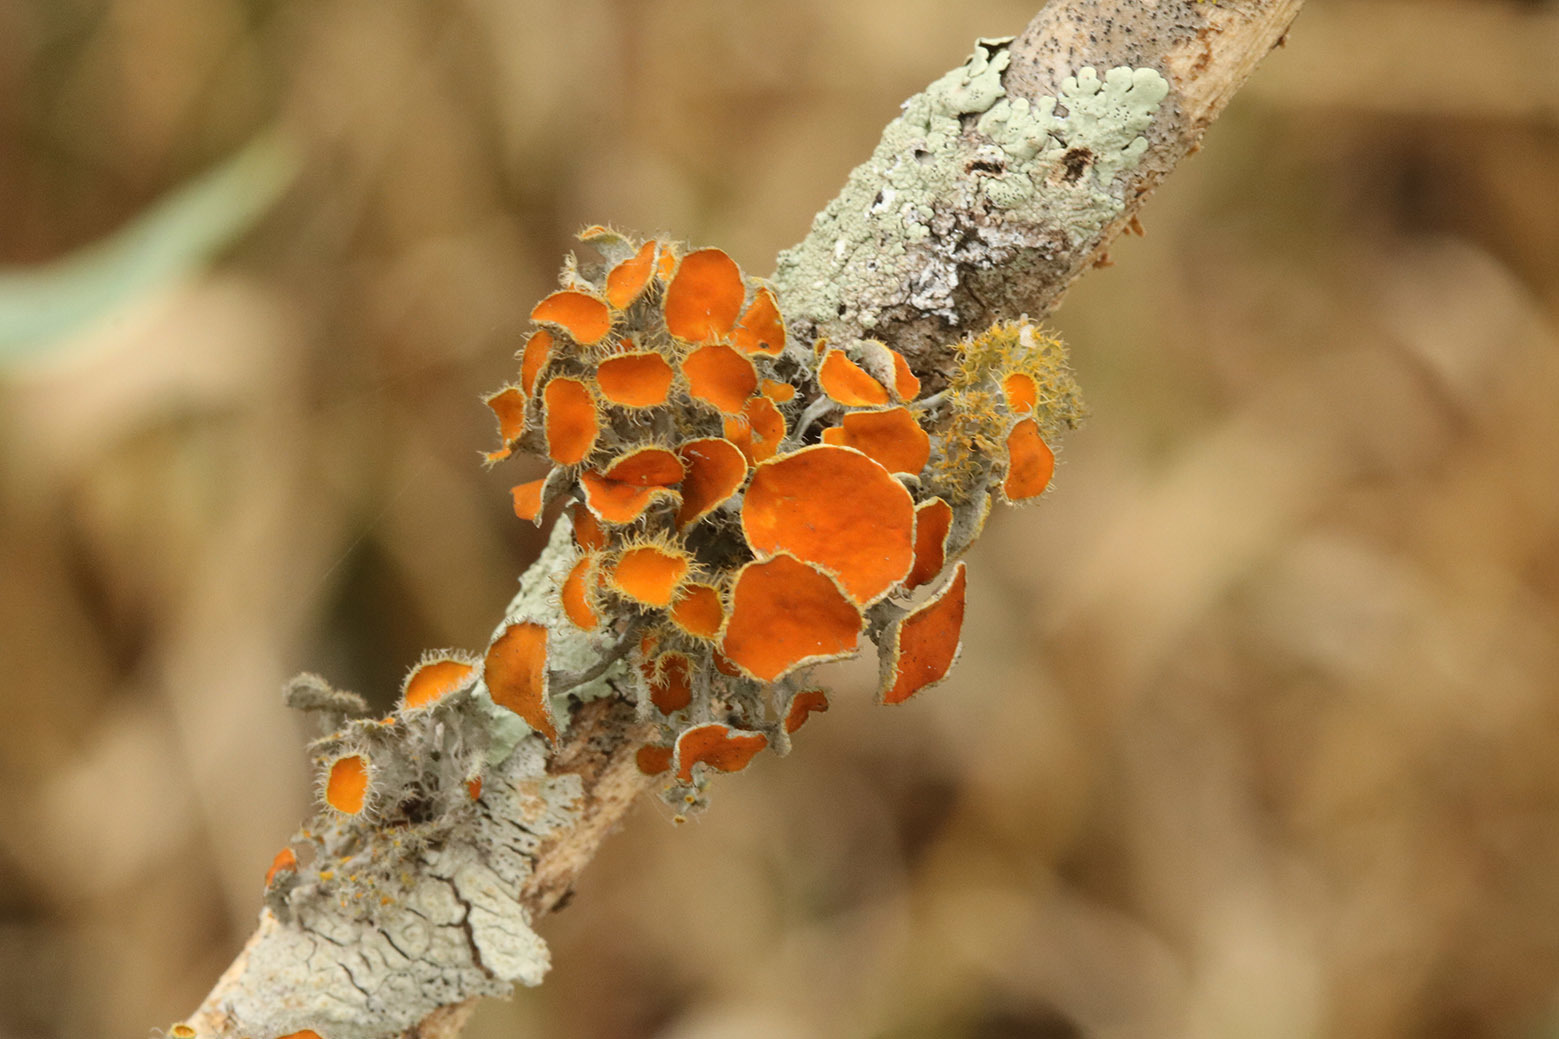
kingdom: Fungi
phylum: Ascomycota
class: Lecanoromycetes
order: Teloschistales
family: Teloschistaceae
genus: Niorma
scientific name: Niorma chrysophthalma
